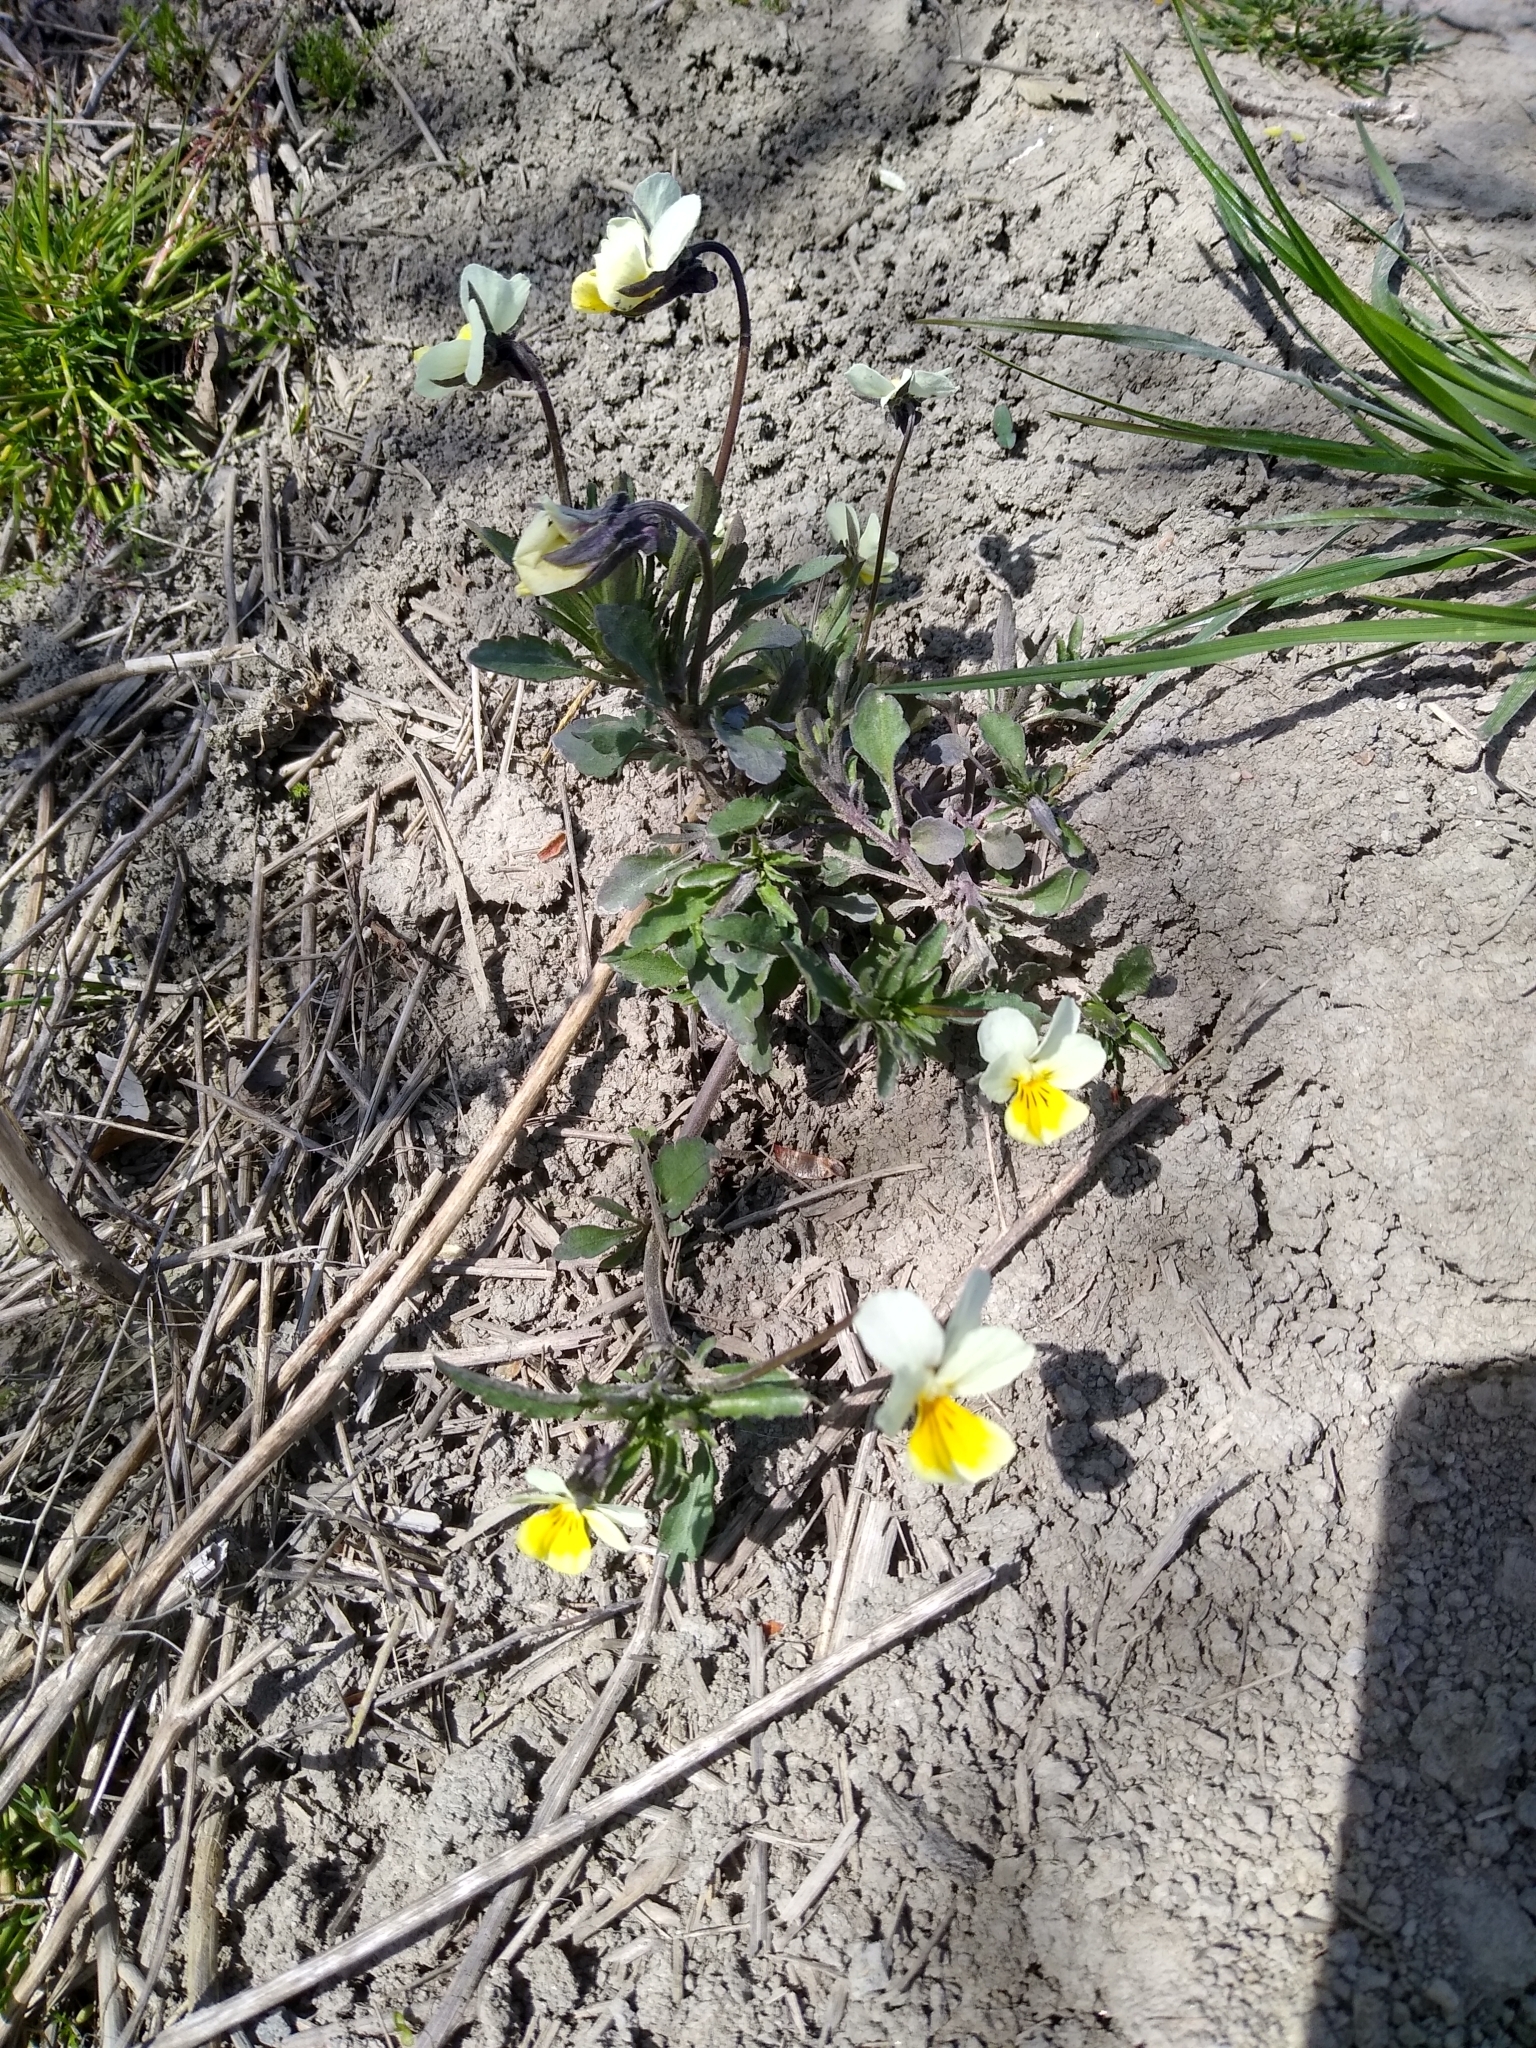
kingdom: Plantae
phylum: Tracheophyta
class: Magnoliopsida
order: Malpighiales
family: Violaceae
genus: Viola
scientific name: Viola arvensis
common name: Field pansy
